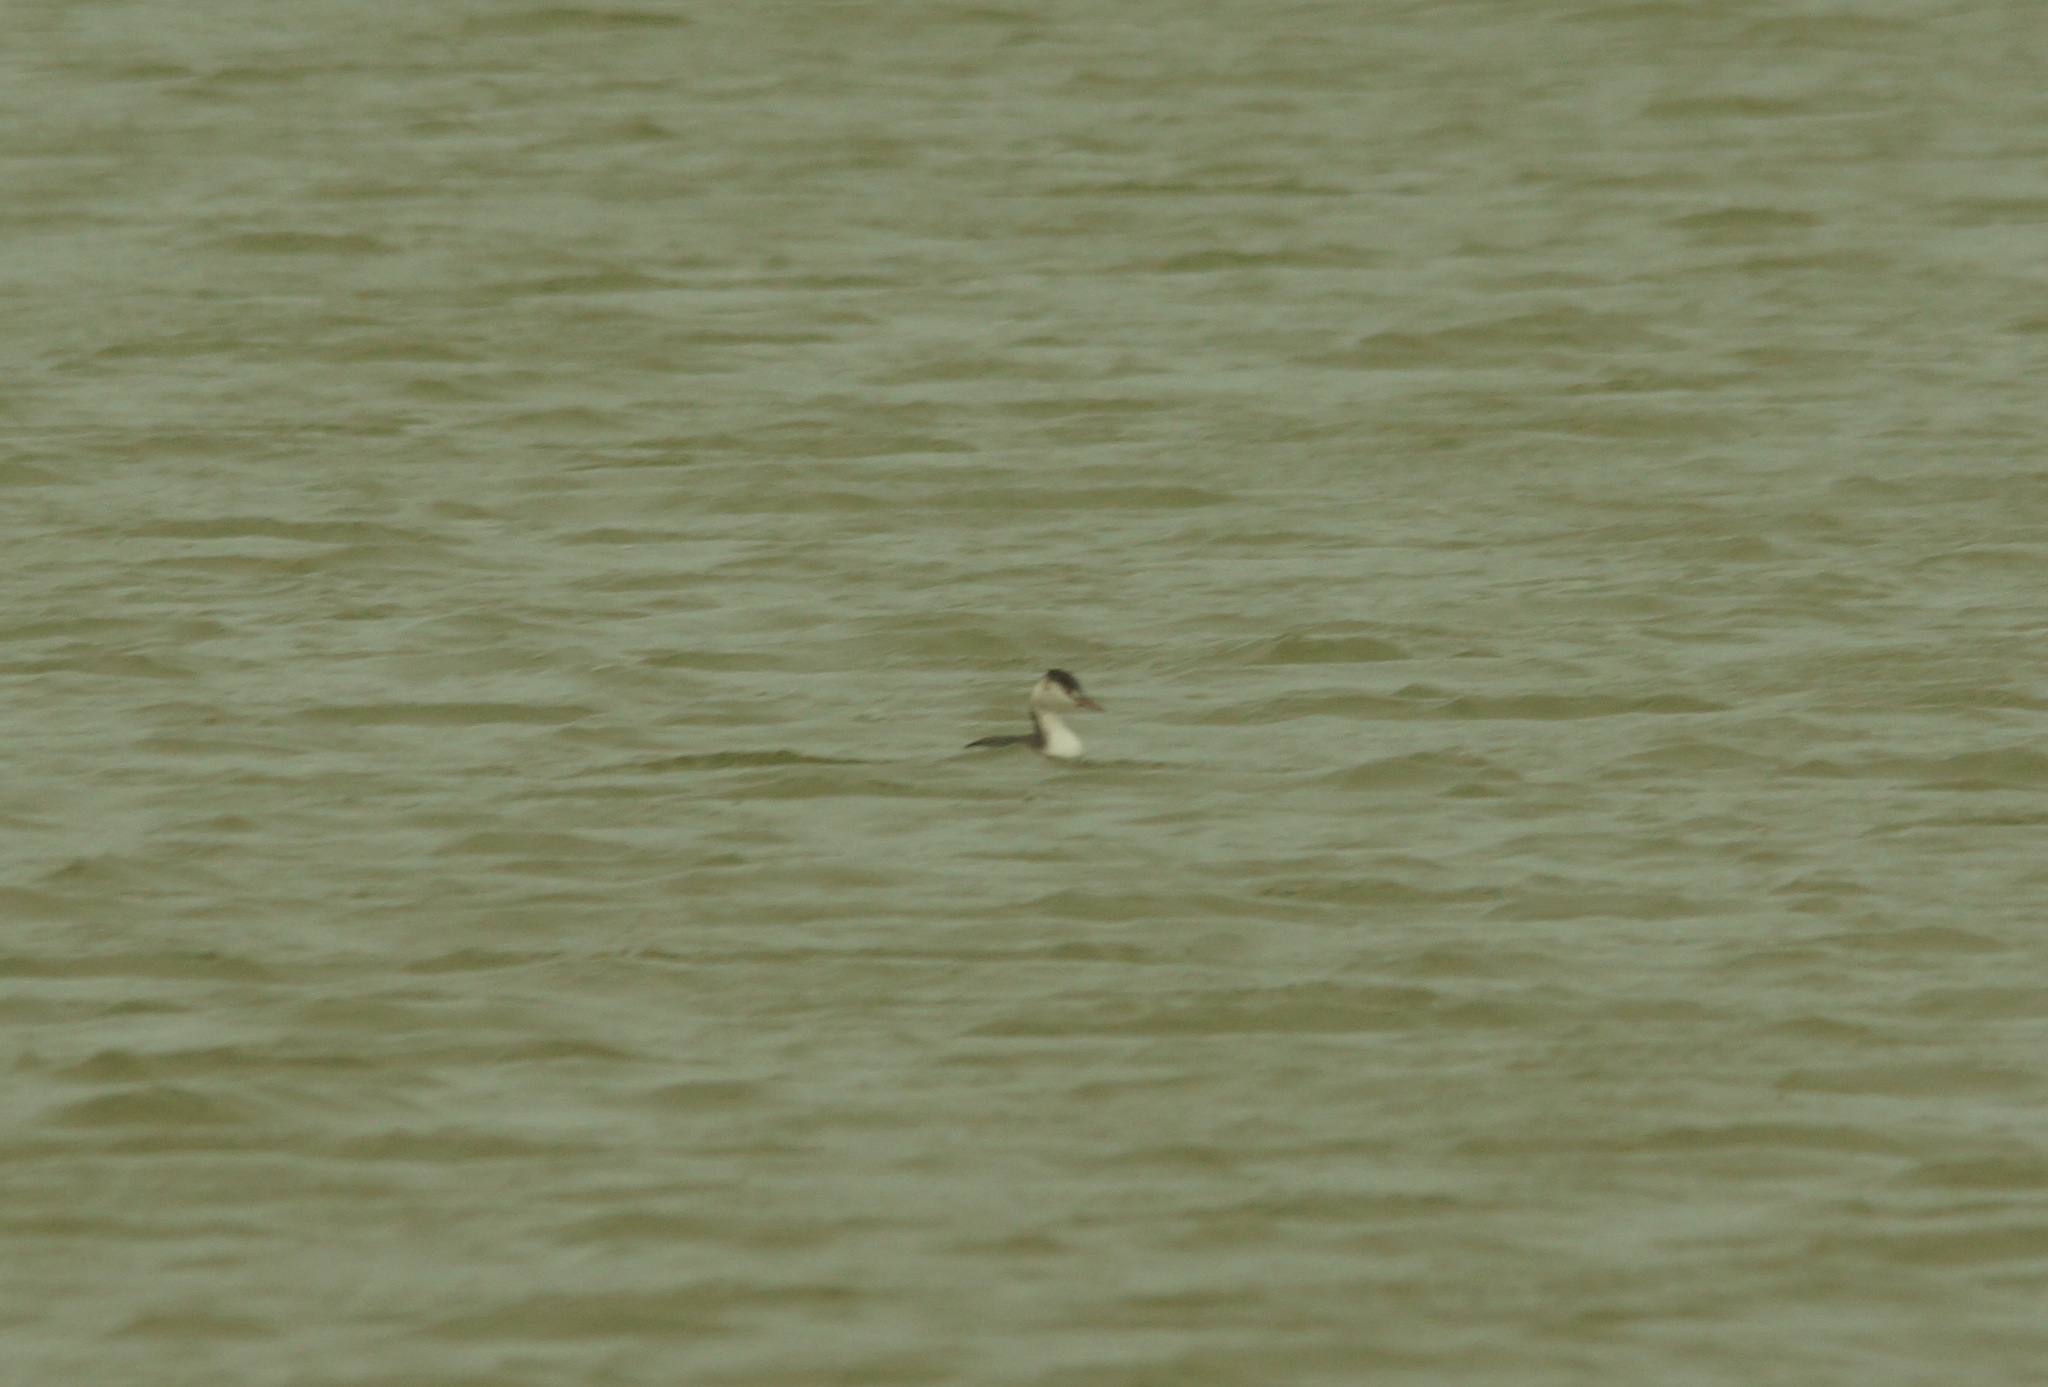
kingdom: Animalia
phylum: Chordata
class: Aves
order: Podicipediformes
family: Podicipedidae
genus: Podiceps
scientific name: Podiceps cristatus
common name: Great crested grebe
